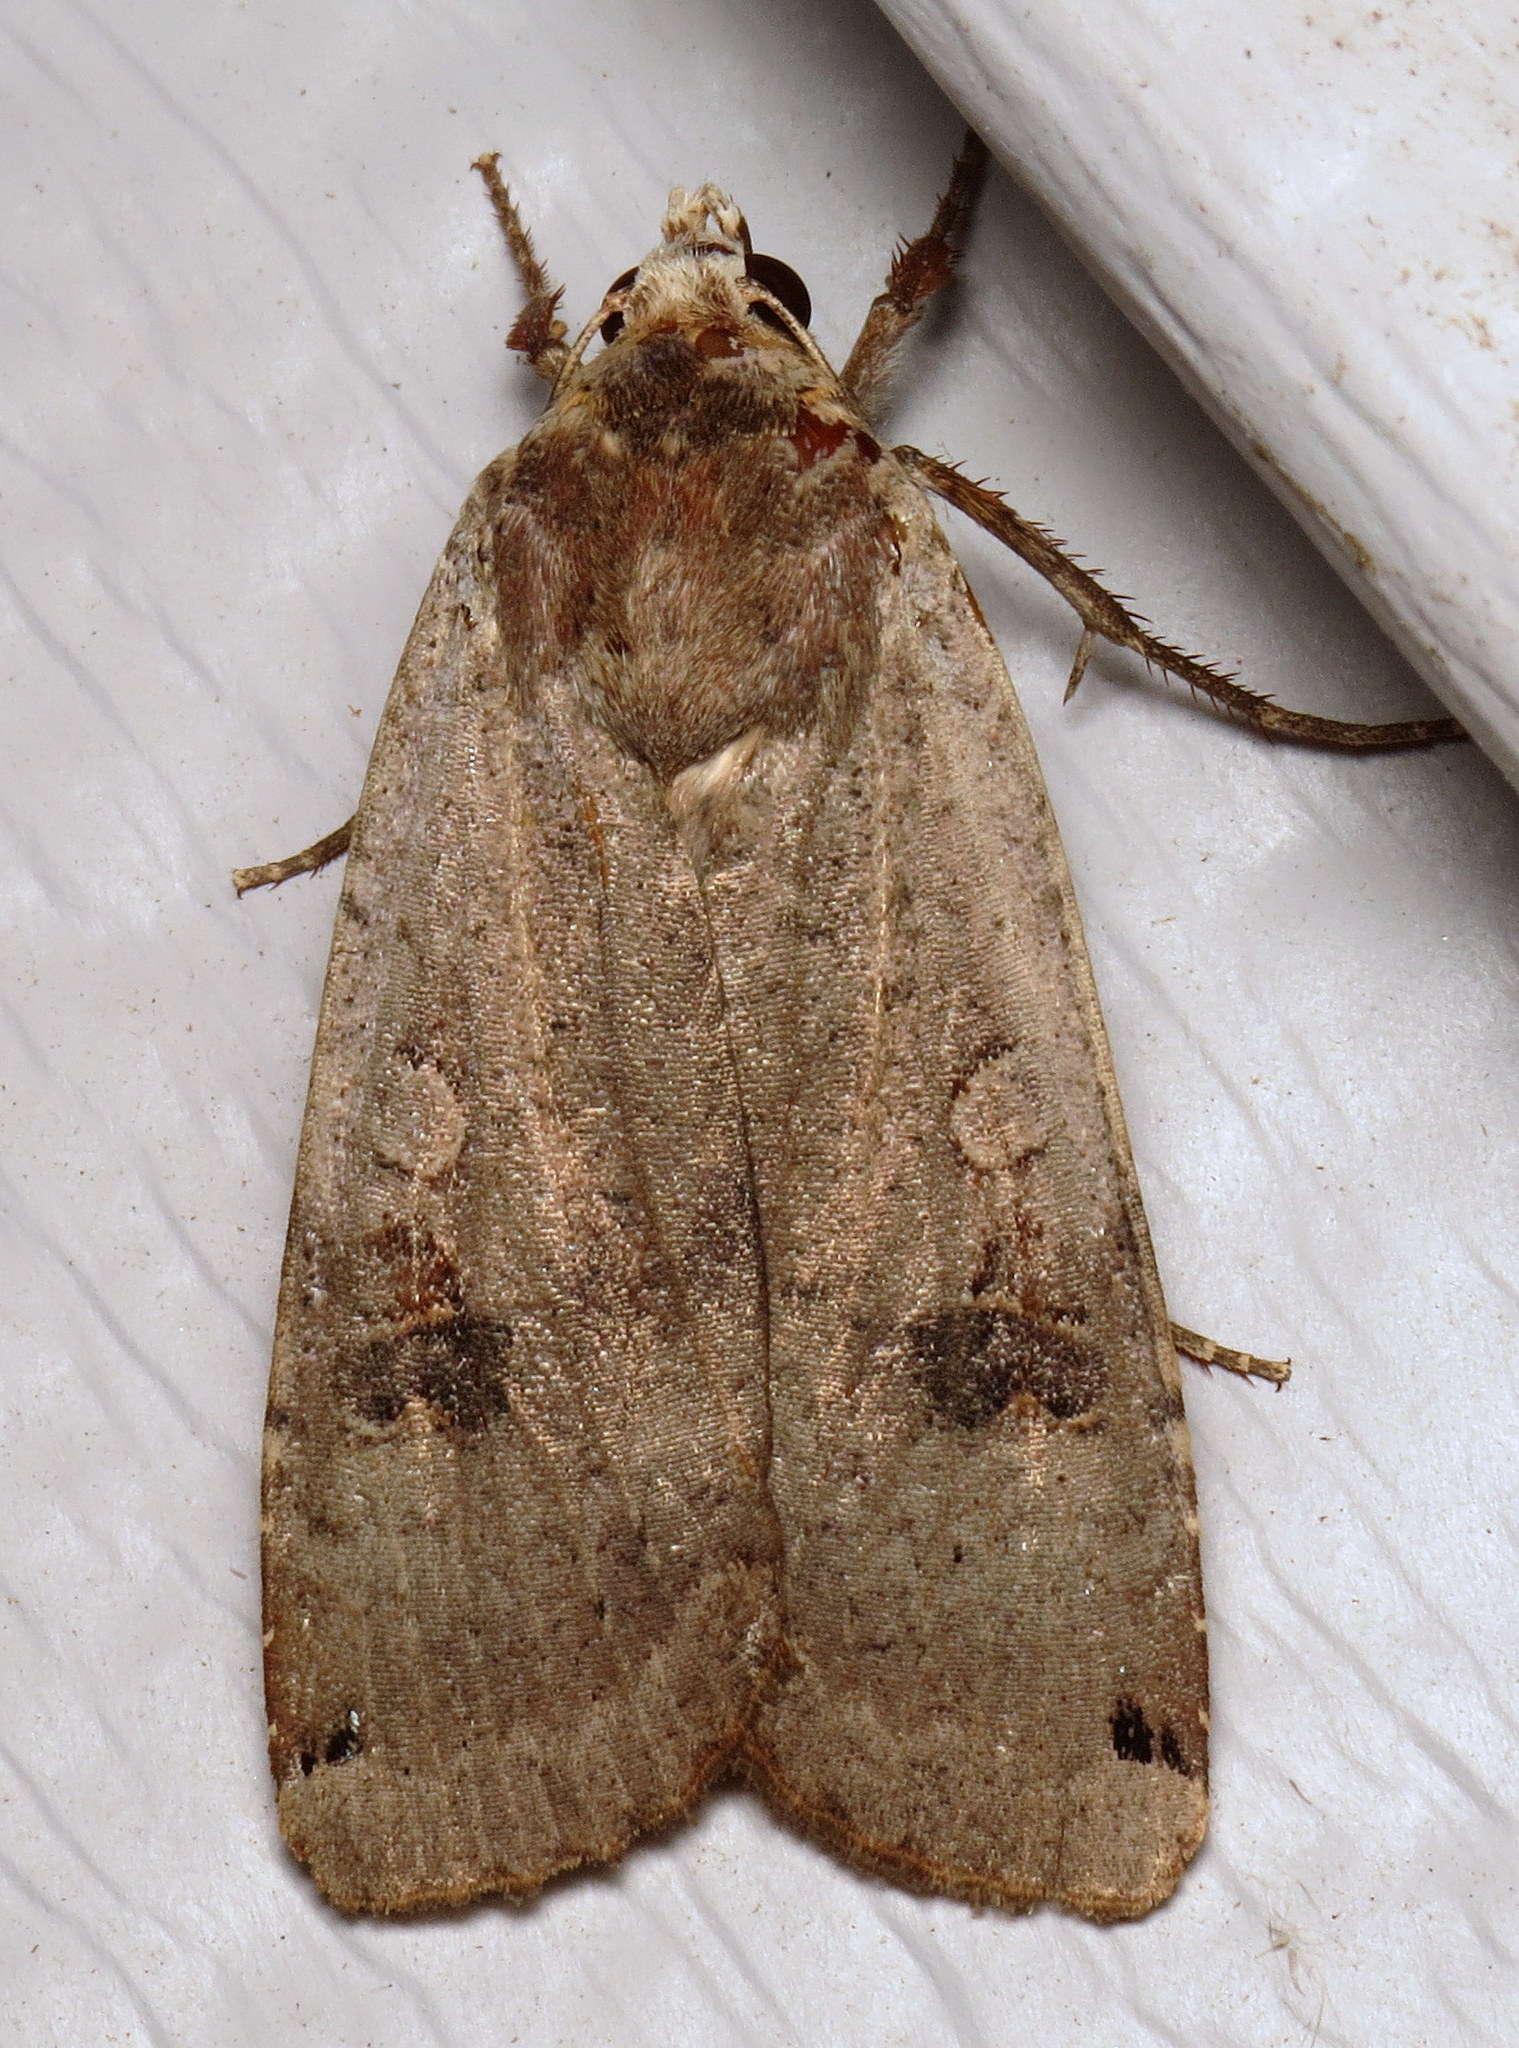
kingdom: Animalia
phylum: Arthropoda
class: Insecta
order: Lepidoptera
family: Noctuidae
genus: Noctua
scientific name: Noctua pronuba
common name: Large yellow underwing
